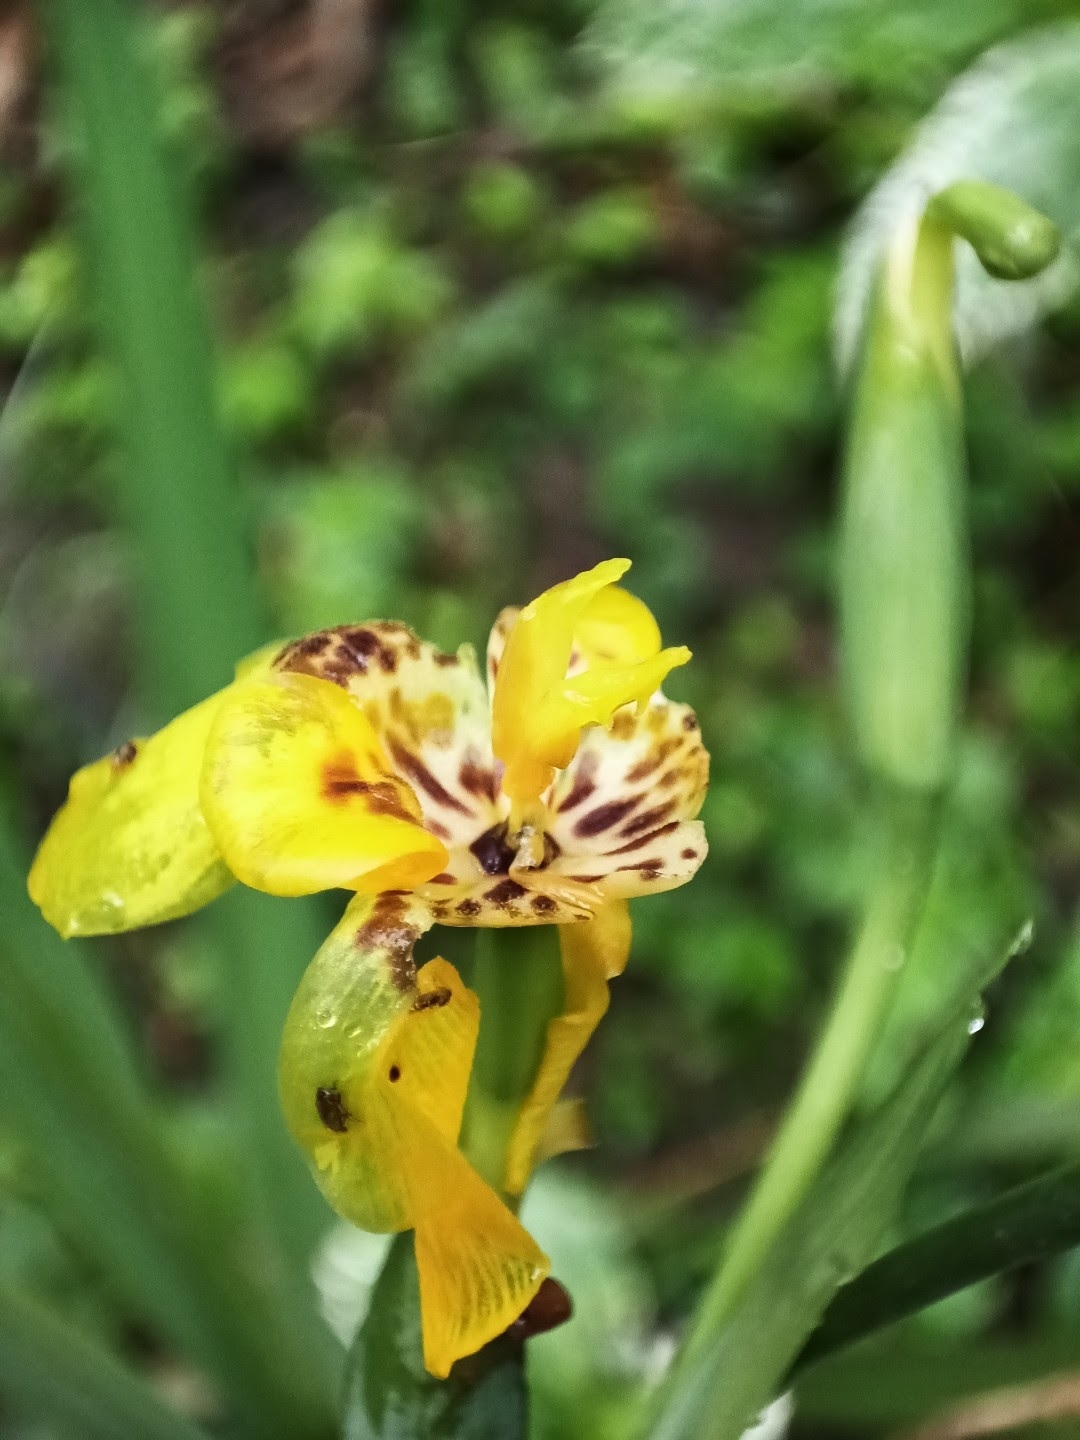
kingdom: Plantae
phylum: Tracheophyta
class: Liliopsida
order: Asparagales
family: Iridaceae
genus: Trimezia
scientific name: Trimezia steyermarkii
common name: Trimezia
